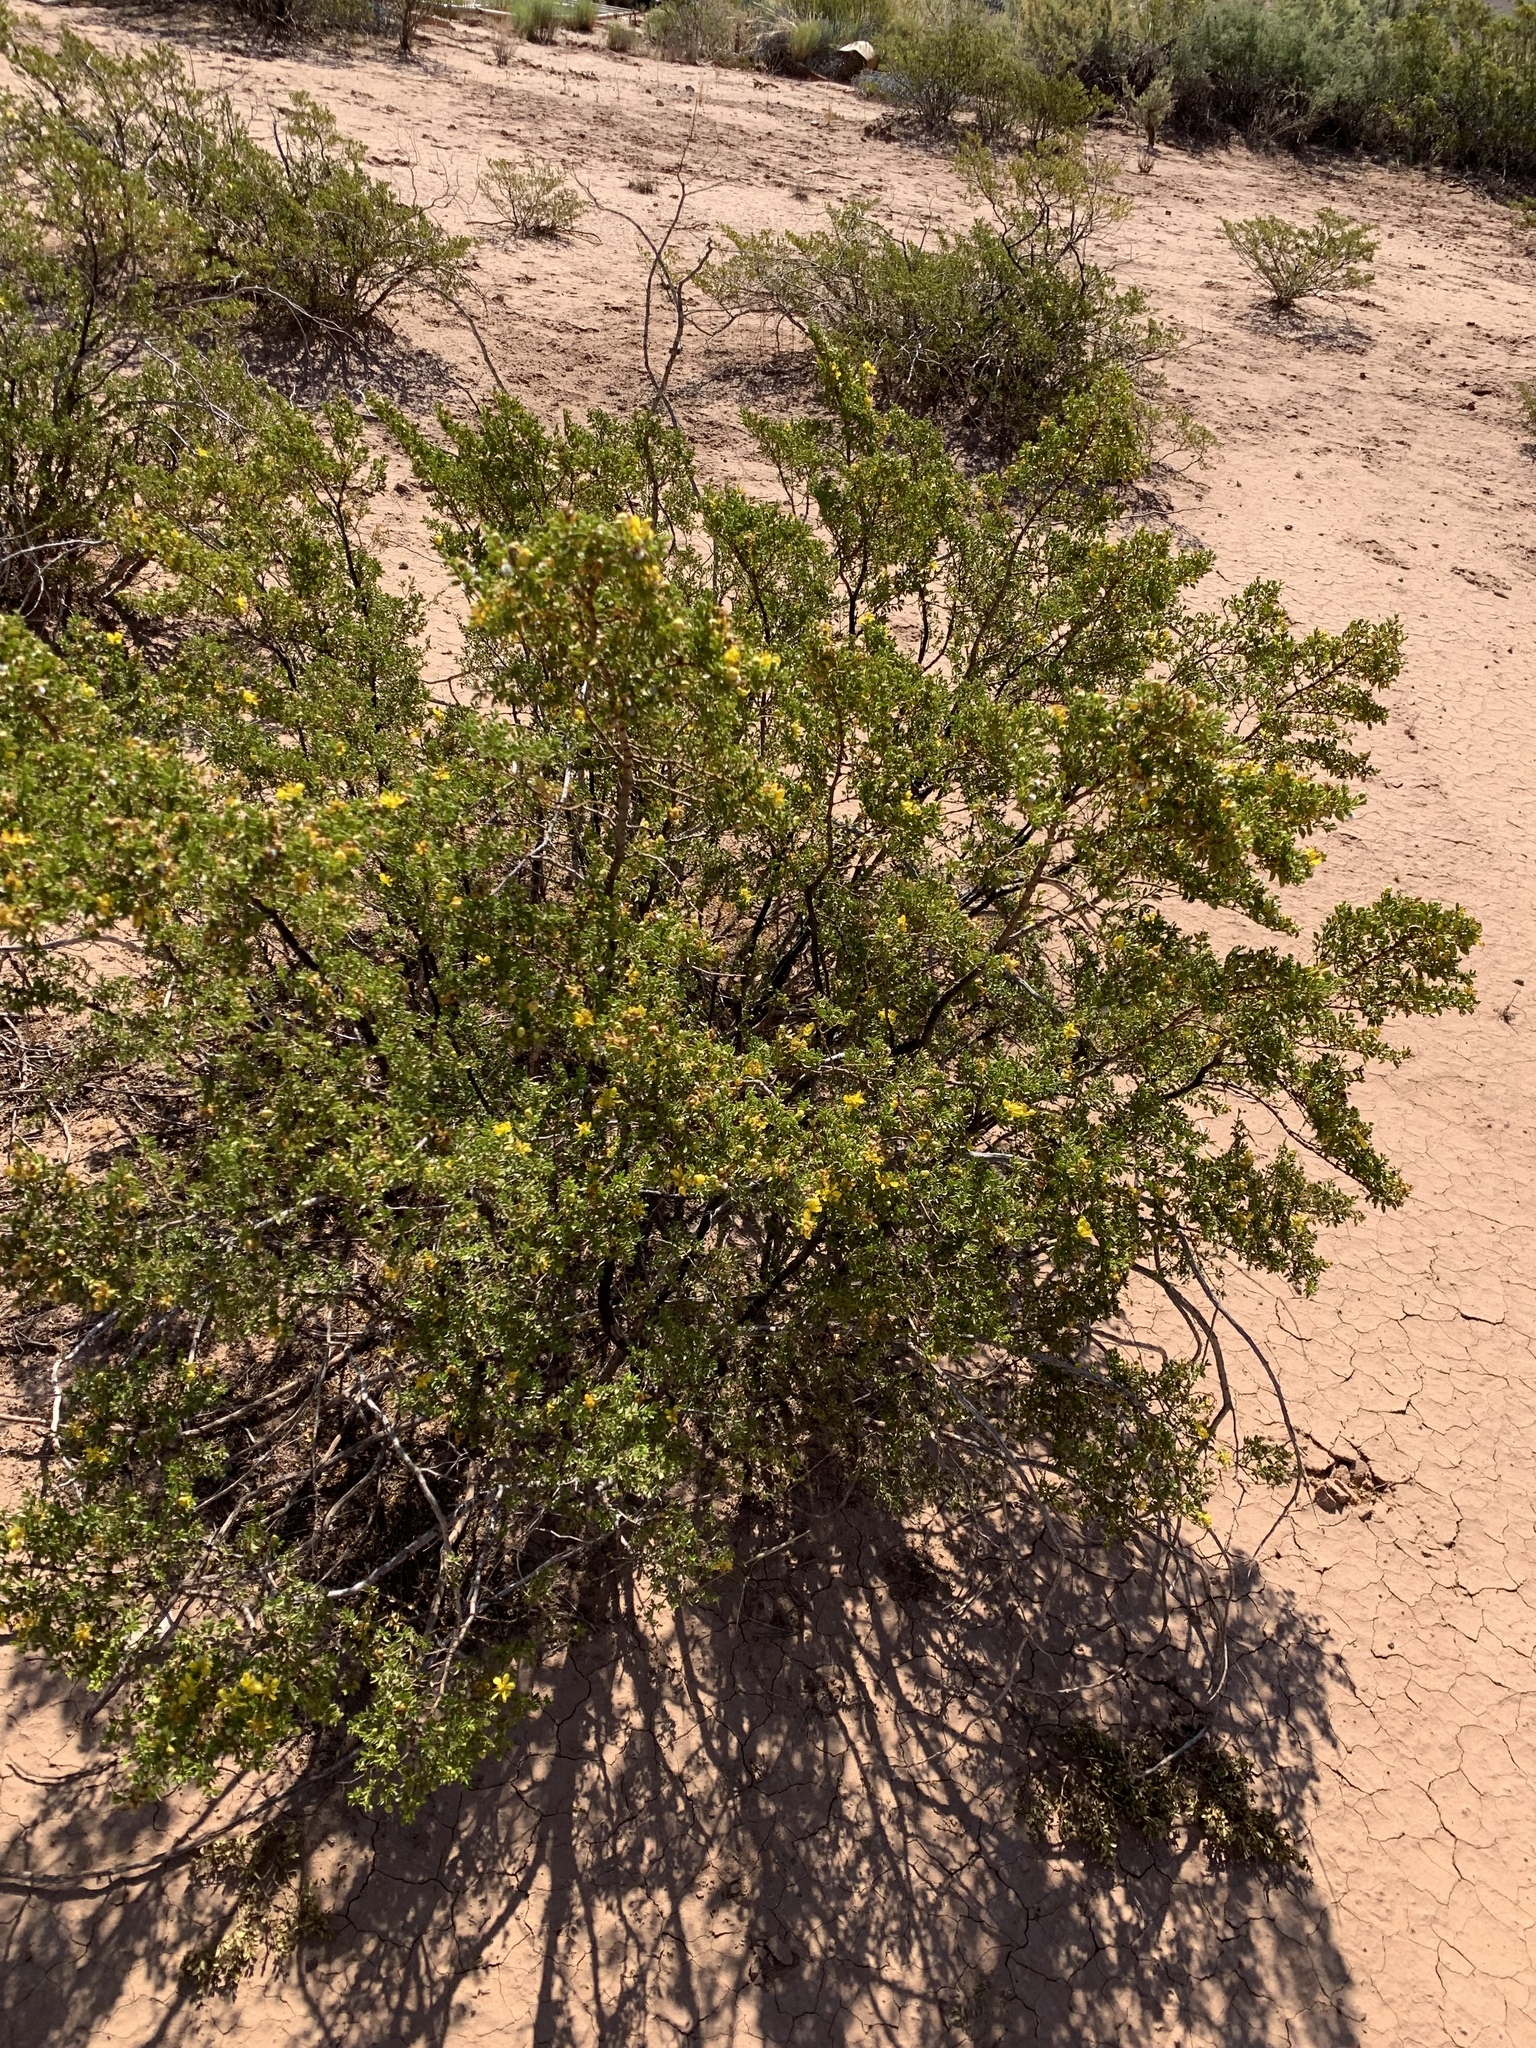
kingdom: Plantae
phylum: Tracheophyta
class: Magnoliopsida
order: Zygophyllales
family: Zygophyllaceae
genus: Larrea
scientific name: Larrea tridentata
